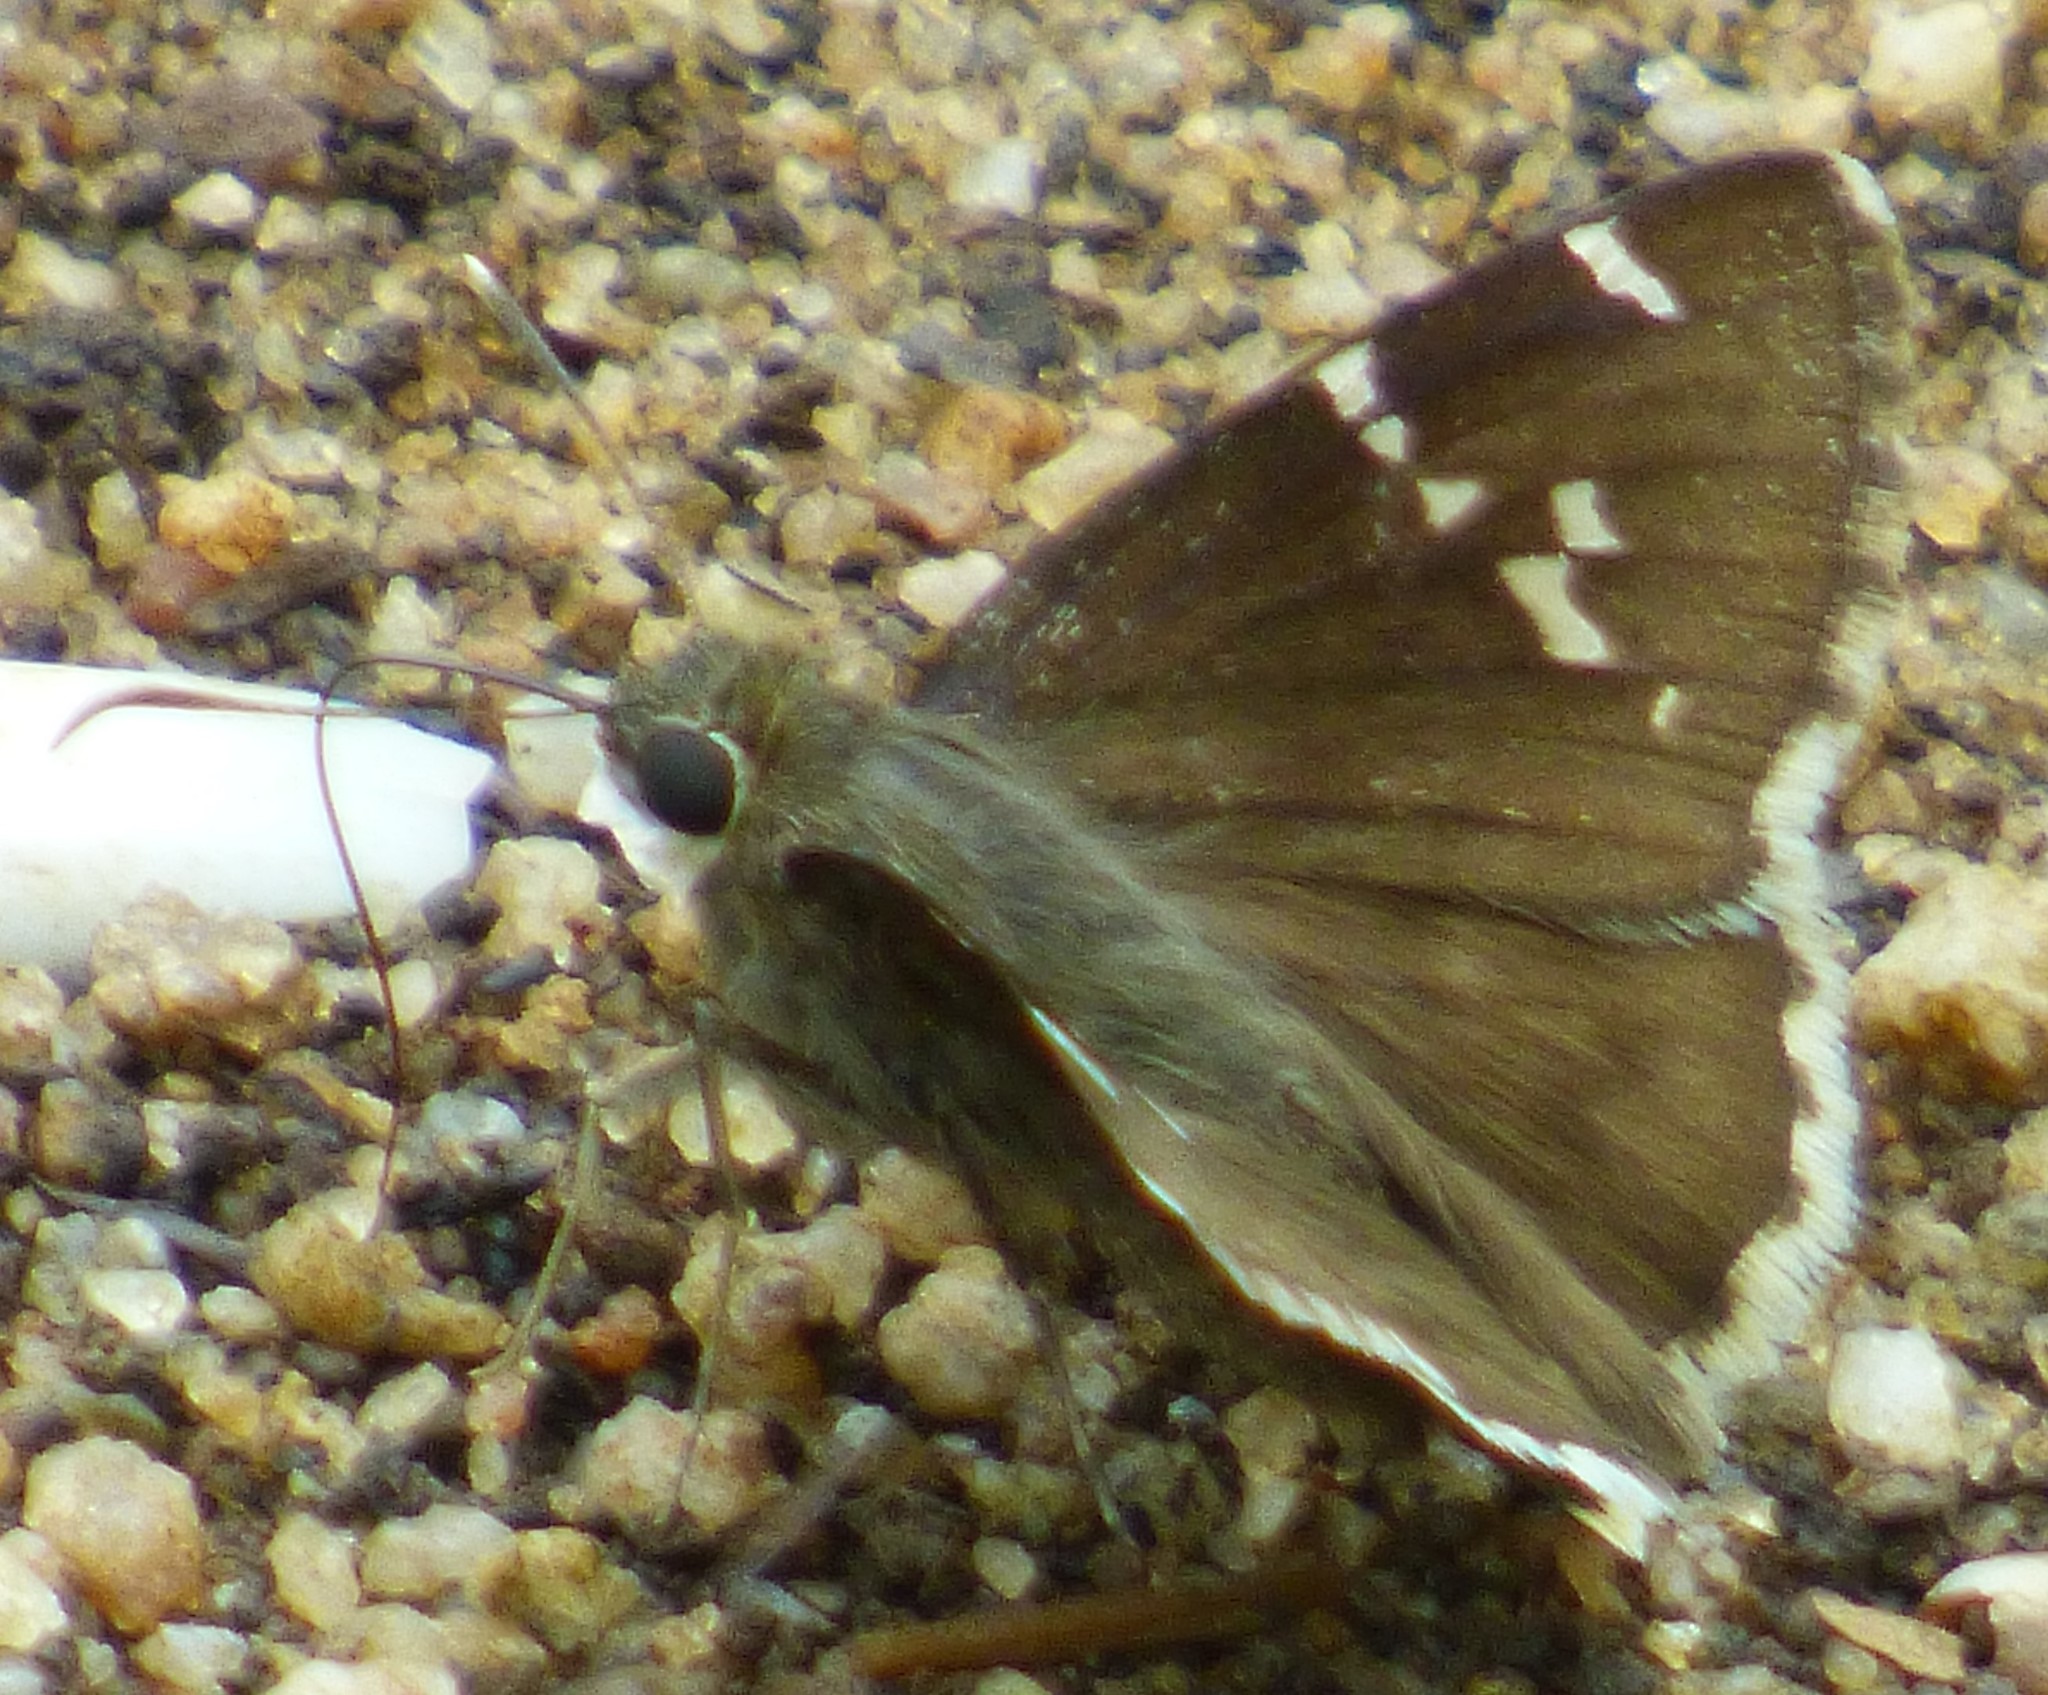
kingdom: Animalia
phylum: Arthropoda
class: Insecta
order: Lepidoptera
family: Hesperiidae
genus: Thorybes
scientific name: Thorybes daunus
